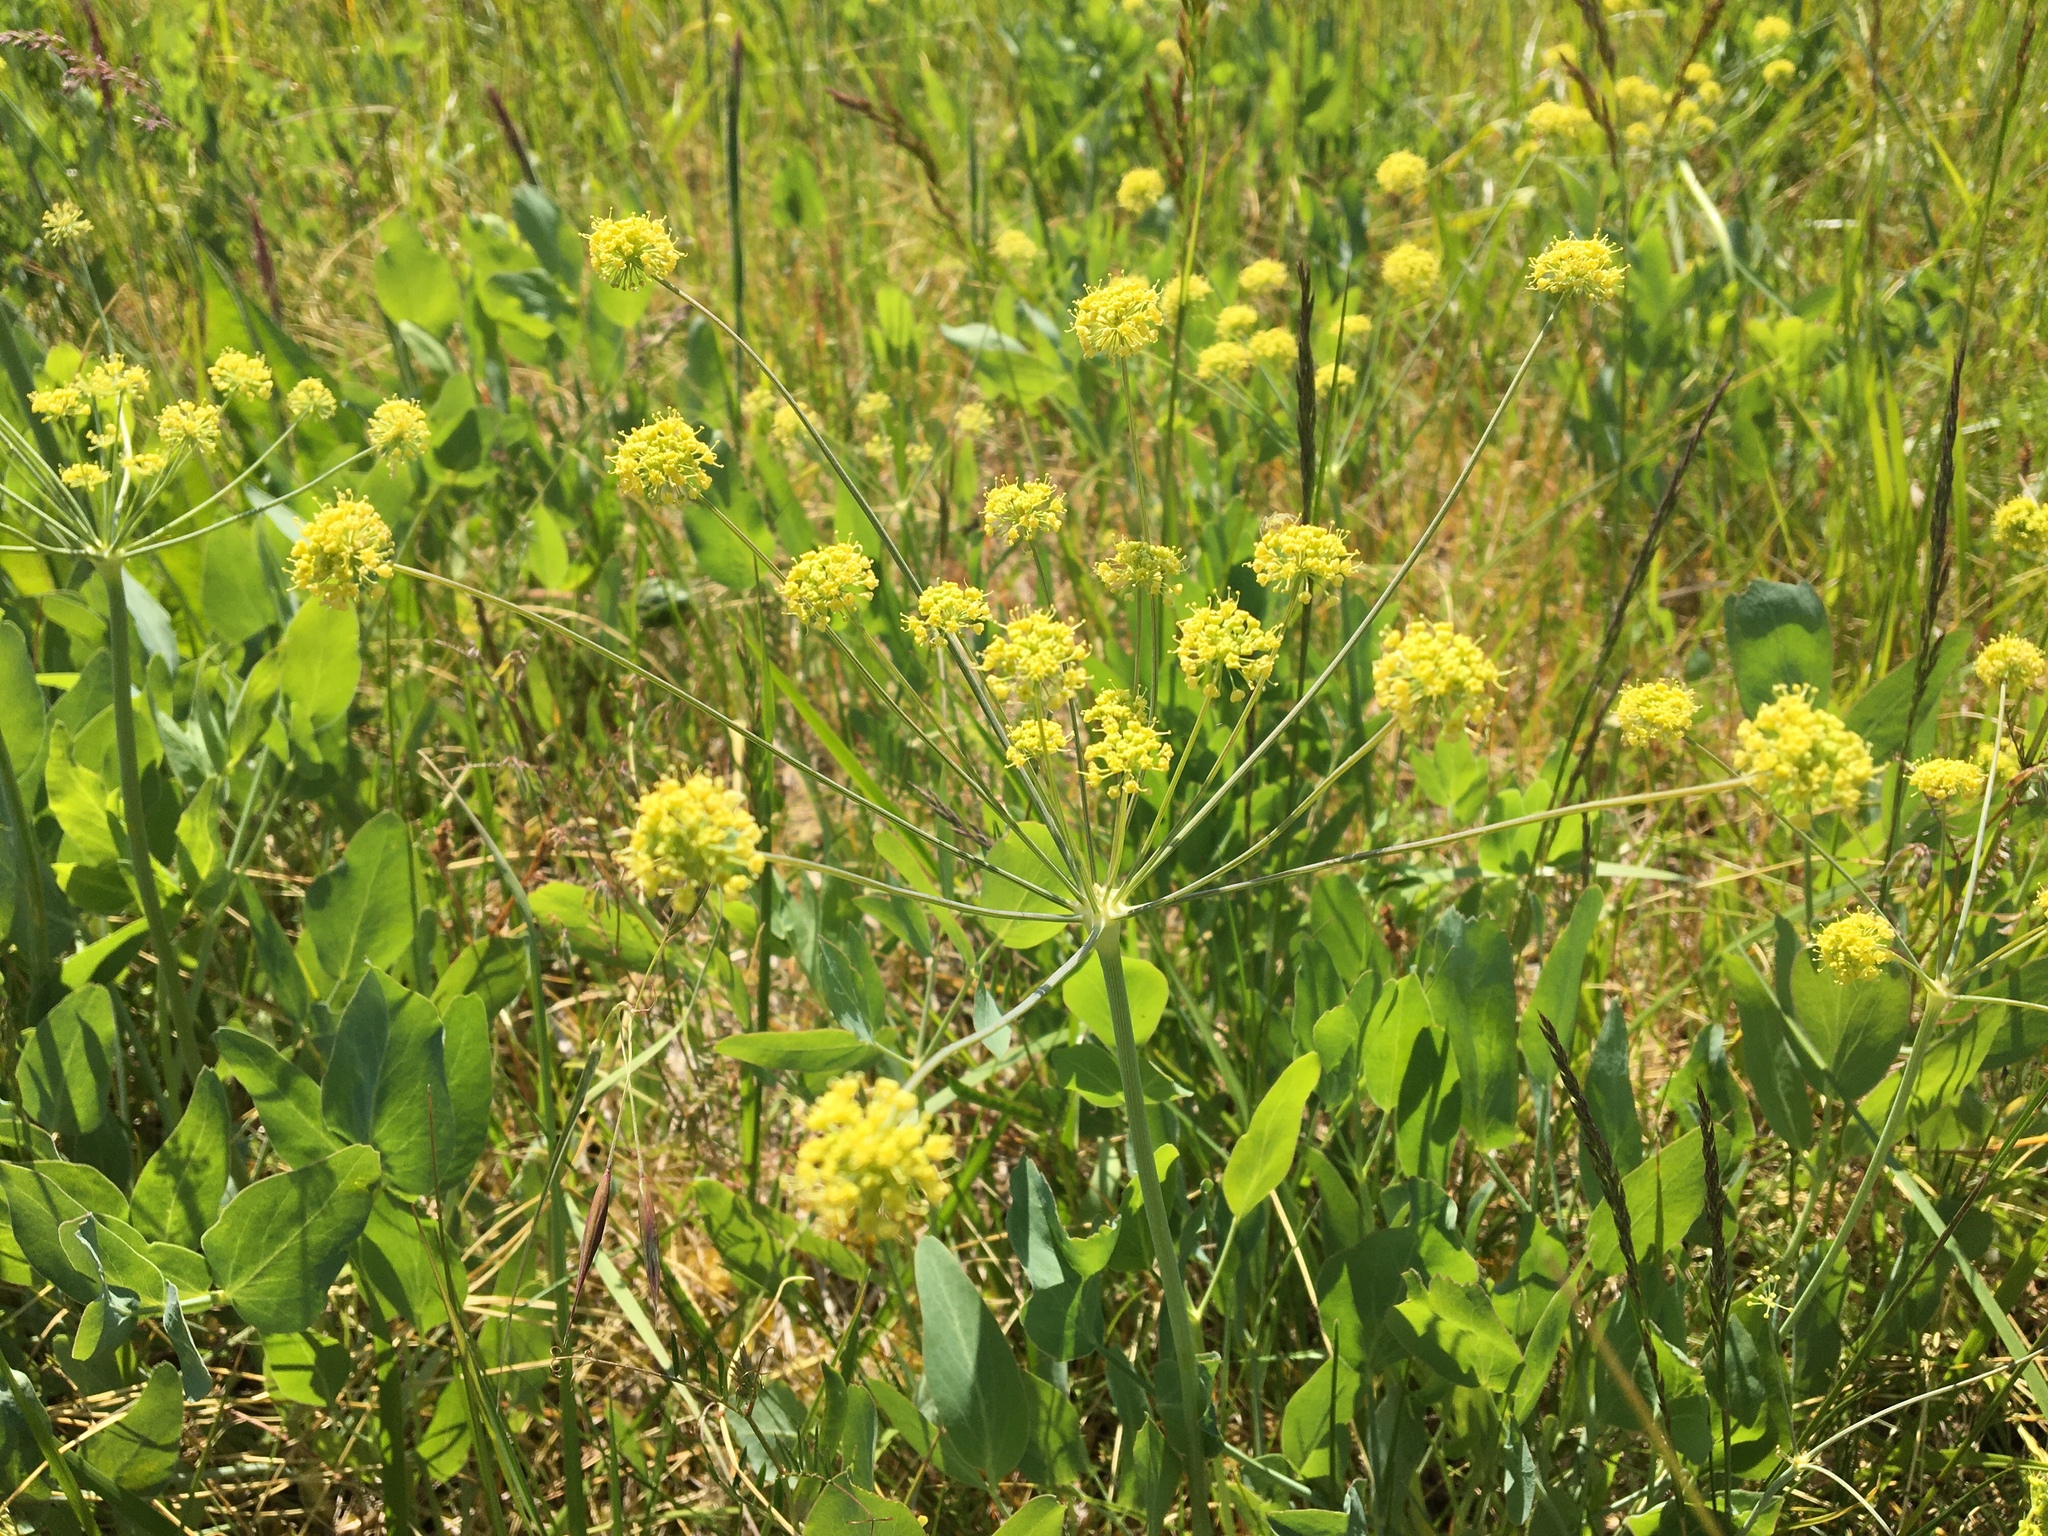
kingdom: Plantae
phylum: Tracheophyta
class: Magnoliopsida
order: Apiales
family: Apiaceae
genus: Lomatium
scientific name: Lomatium nudicaule
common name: Pestle lomatium
